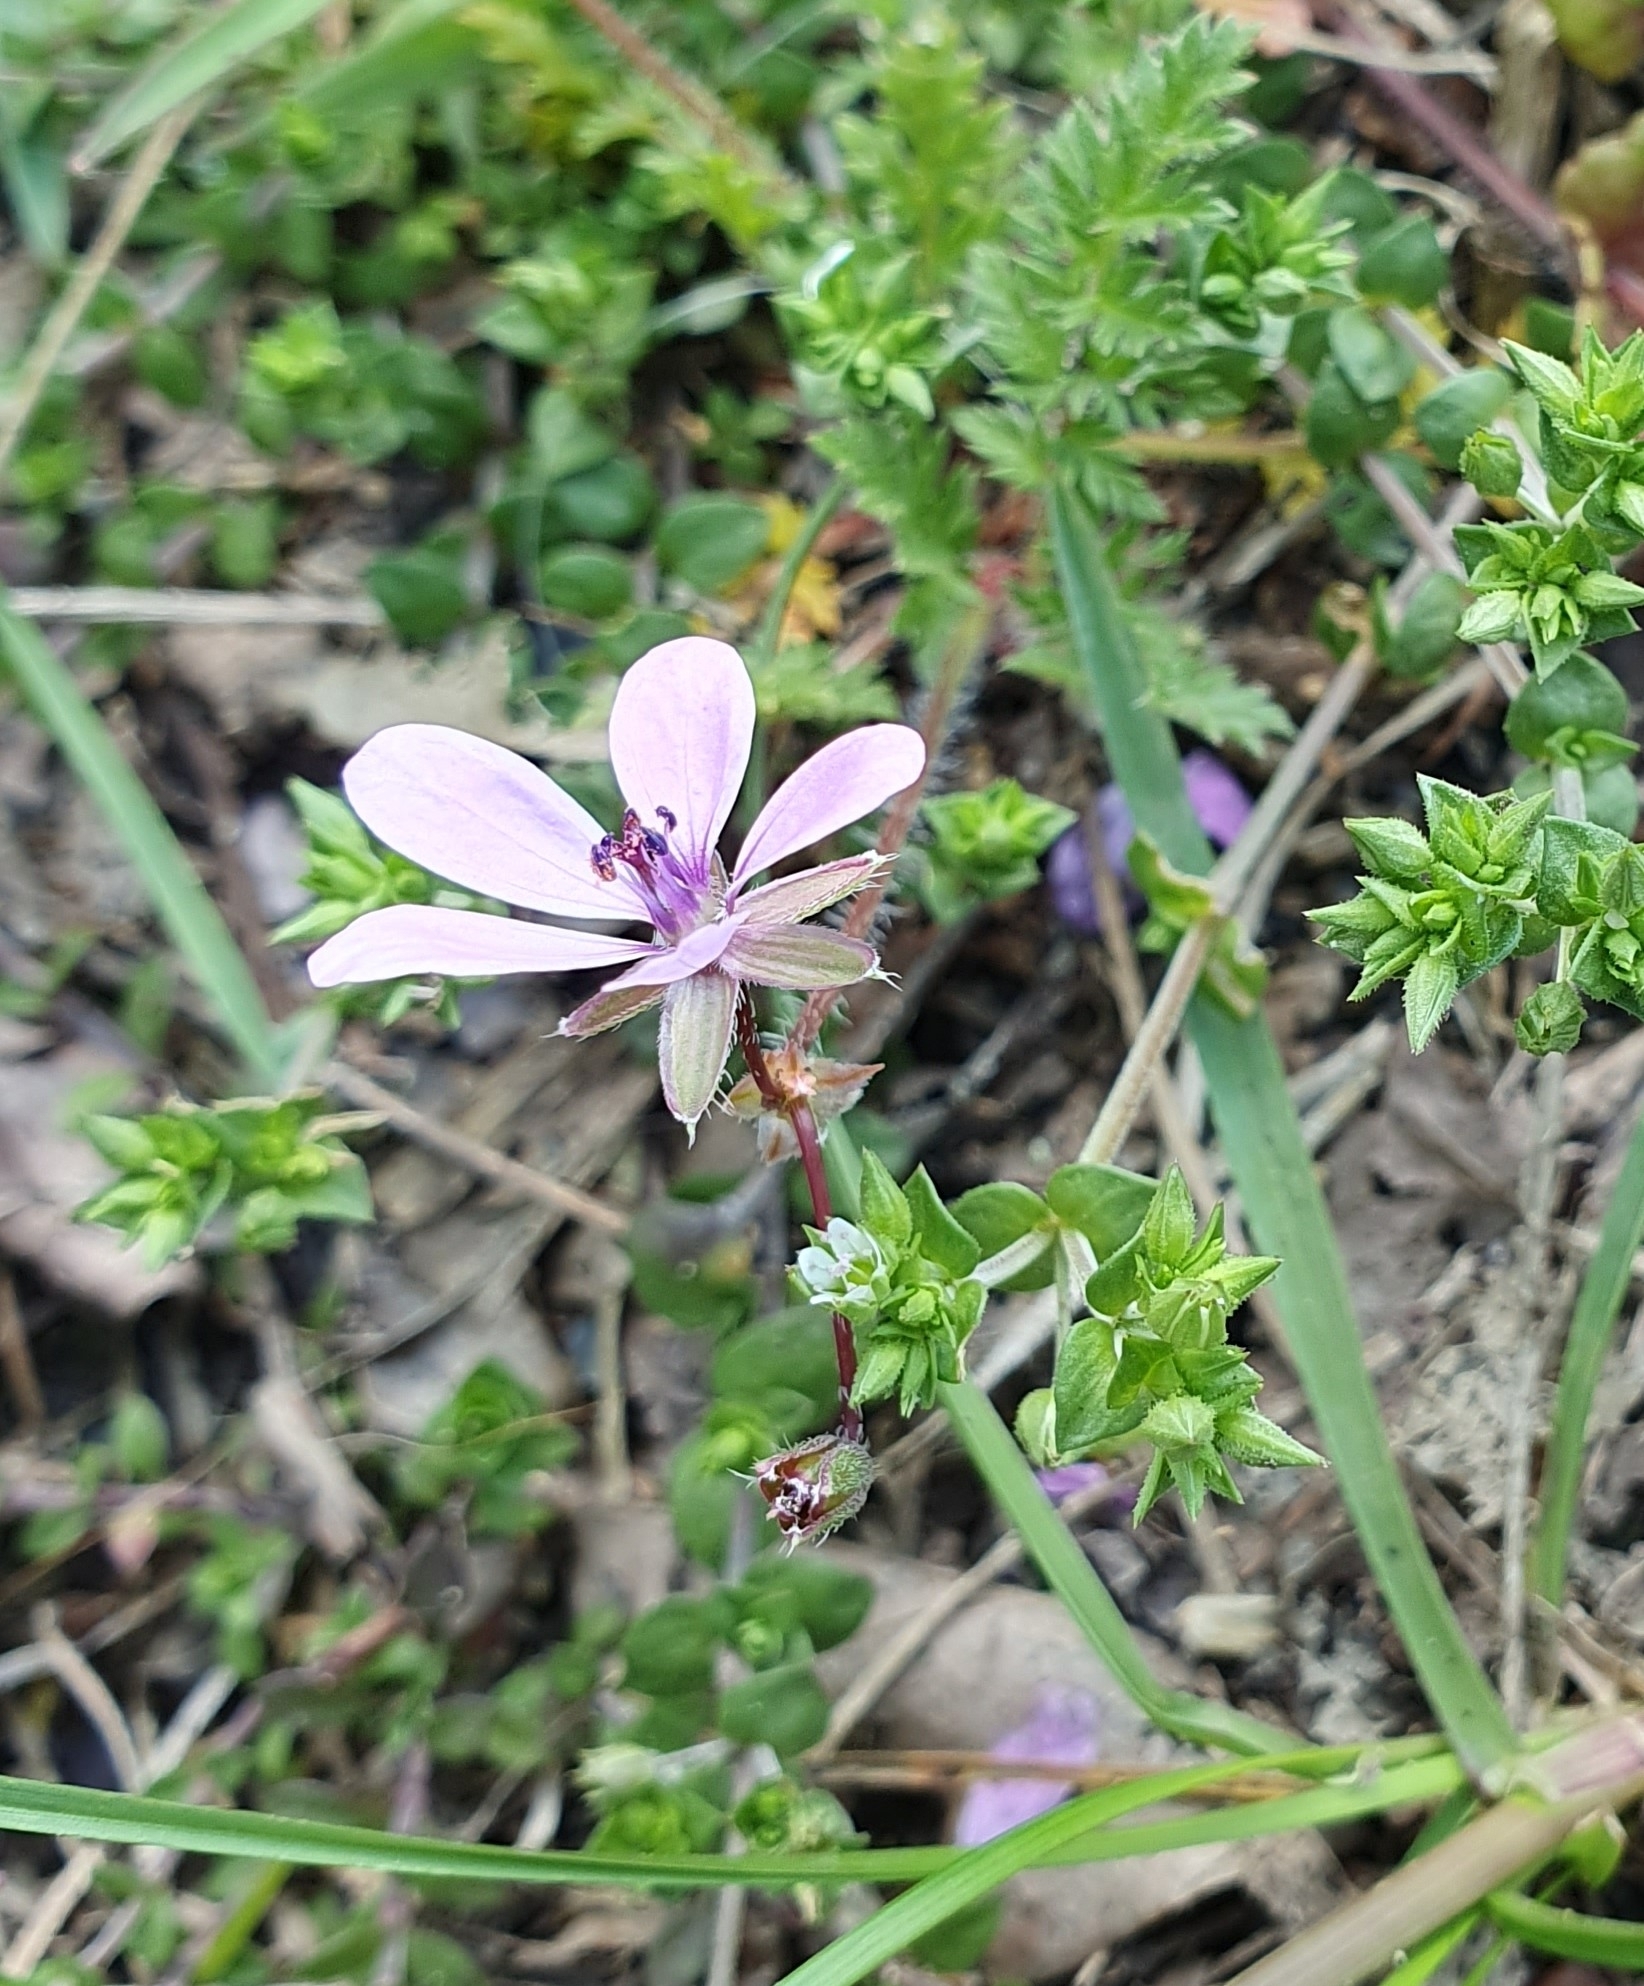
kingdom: Plantae
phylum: Tracheophyta
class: Magnoliopsida
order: Geraniales
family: Geraniaceae
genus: Erodium
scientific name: Erodium cicutarium
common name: Common stork's-bill
